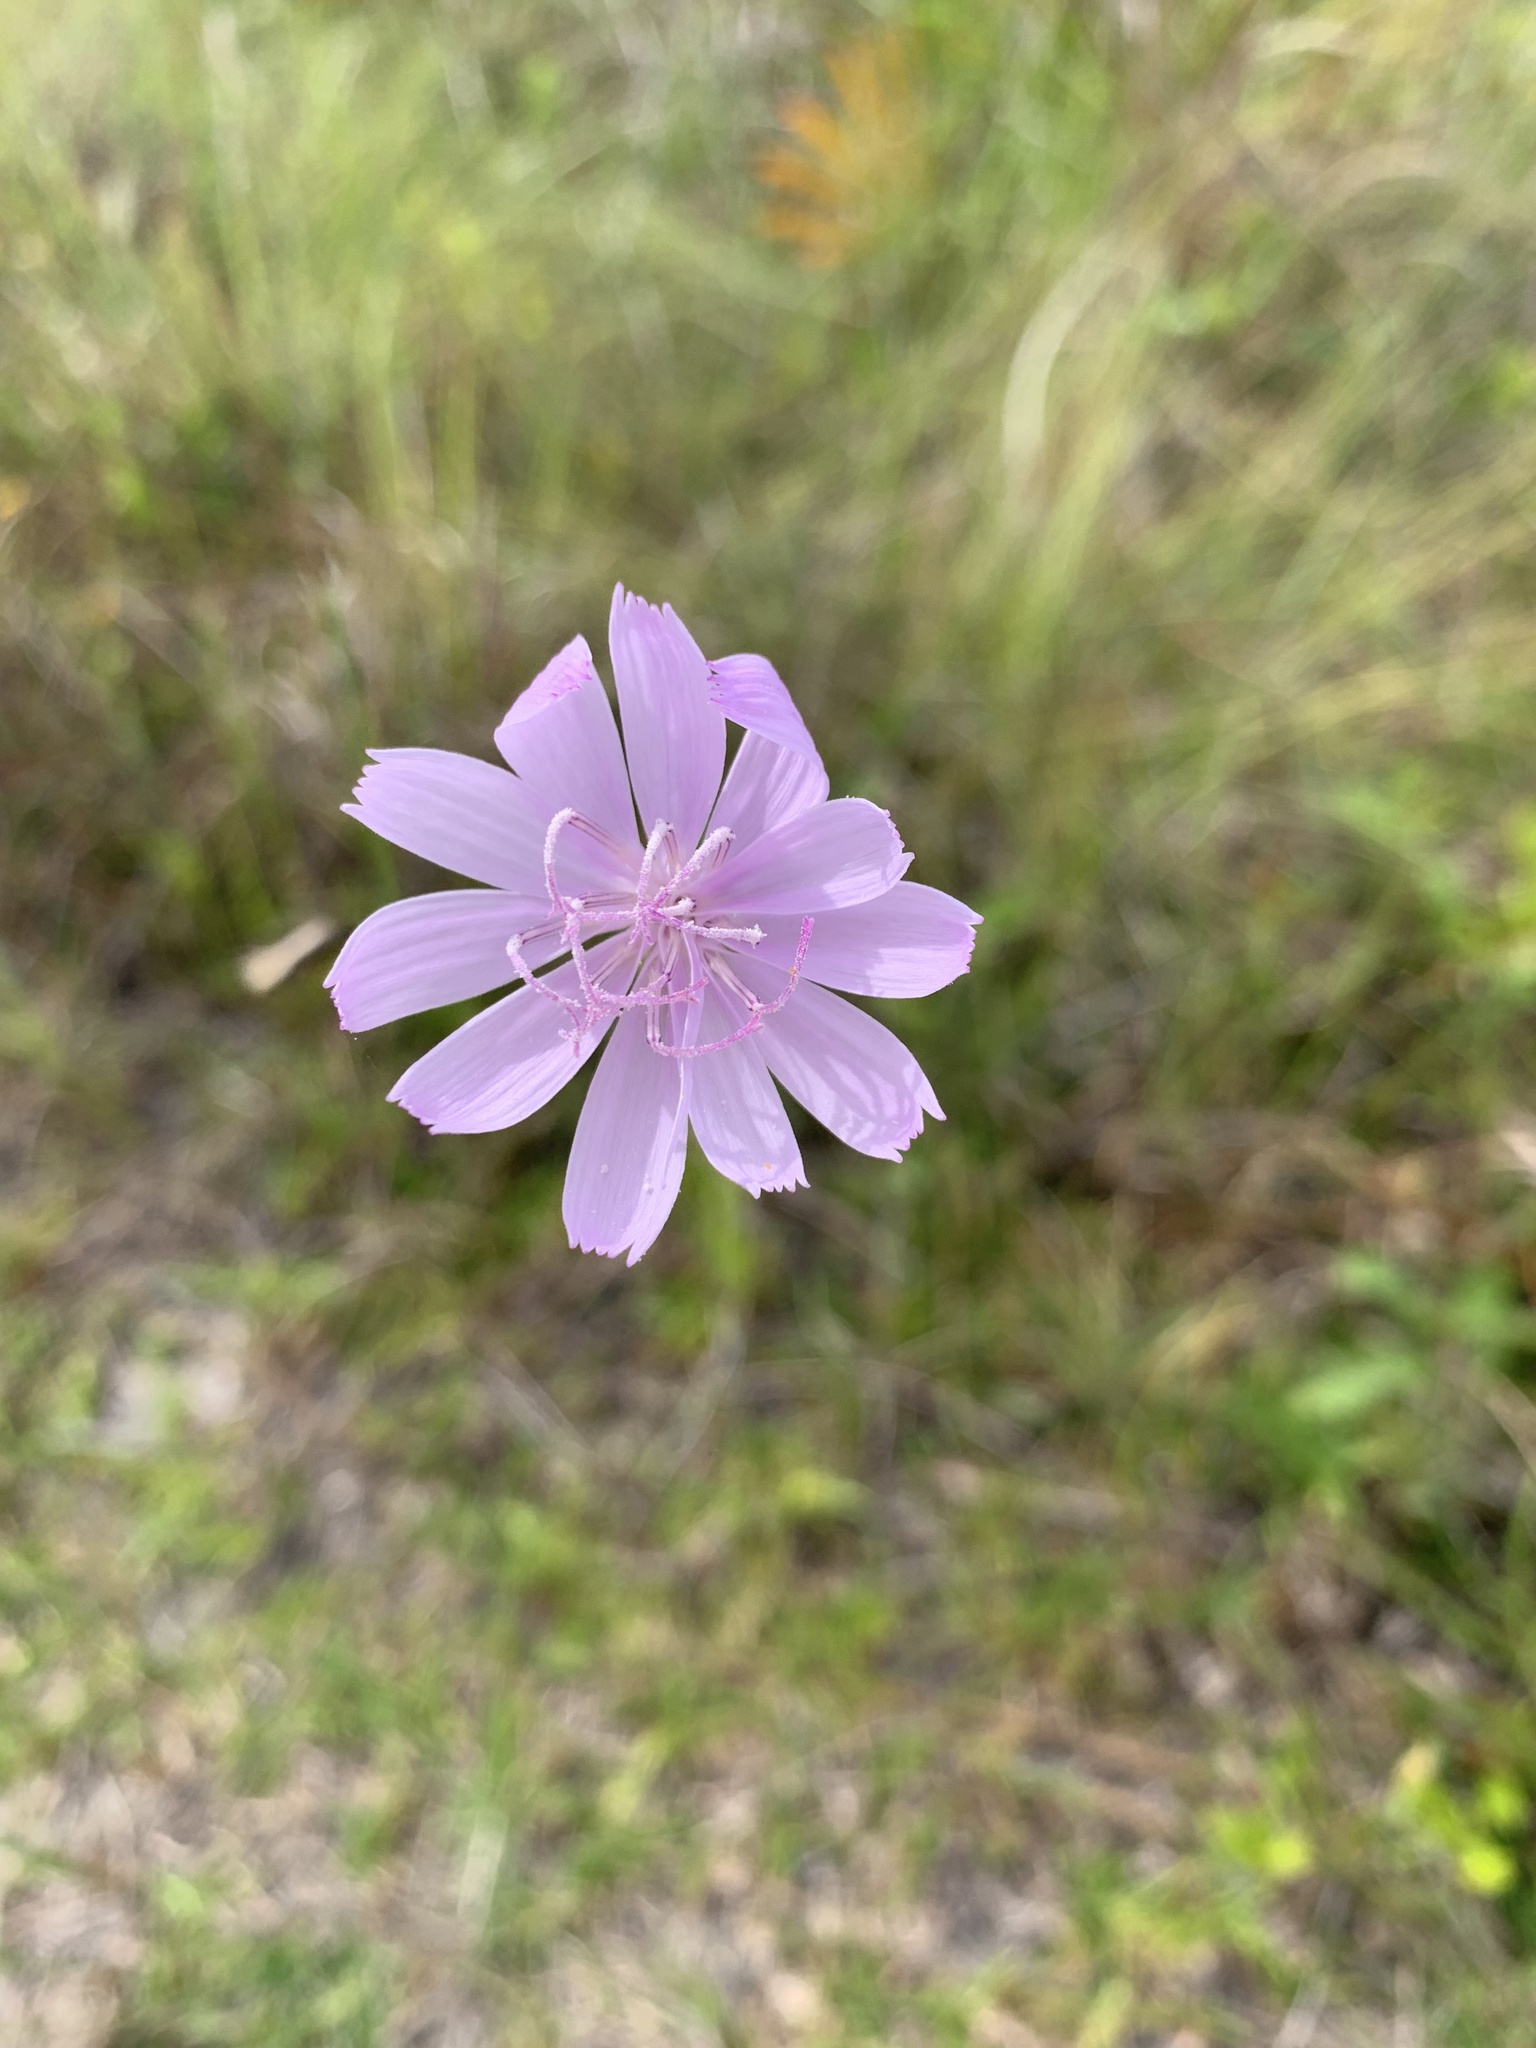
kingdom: Plantae
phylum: Tracheophyta
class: Magnoliopsida
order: Asterales
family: Asteraceae
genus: Lygodesmia
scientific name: Lygodesmia aphylla
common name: Rose-rush
